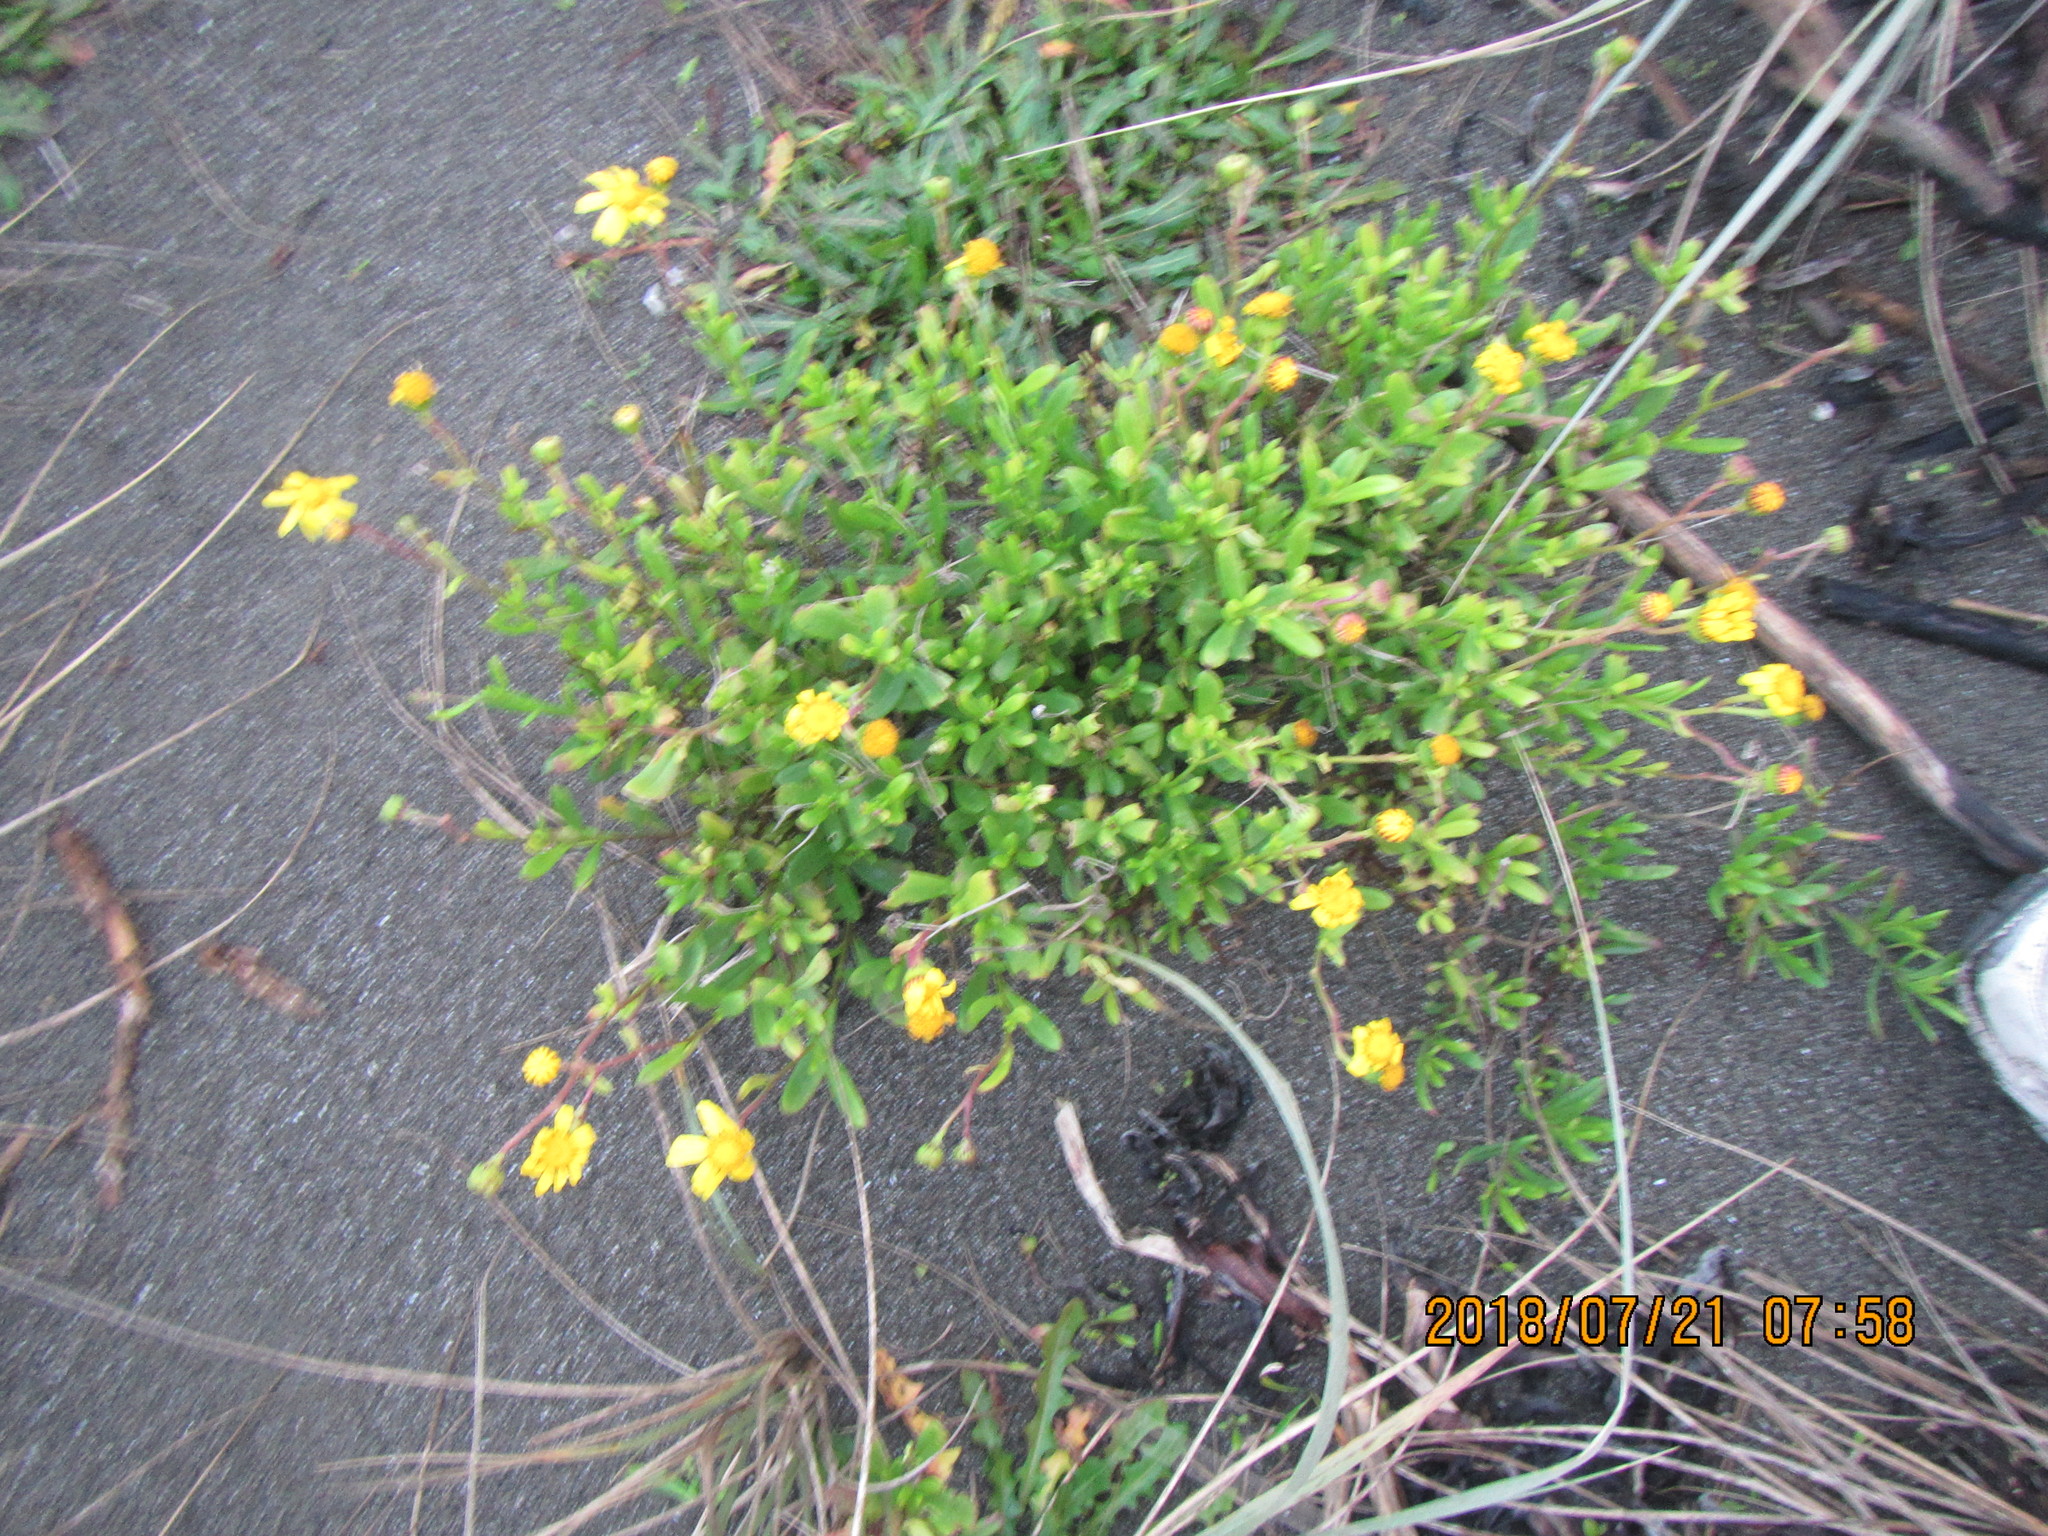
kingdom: Plantae
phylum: Tracheophyta
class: Magnoliopsida
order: Asterales
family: Asteraceae
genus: Senecio
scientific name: Senecio skirrhodon
